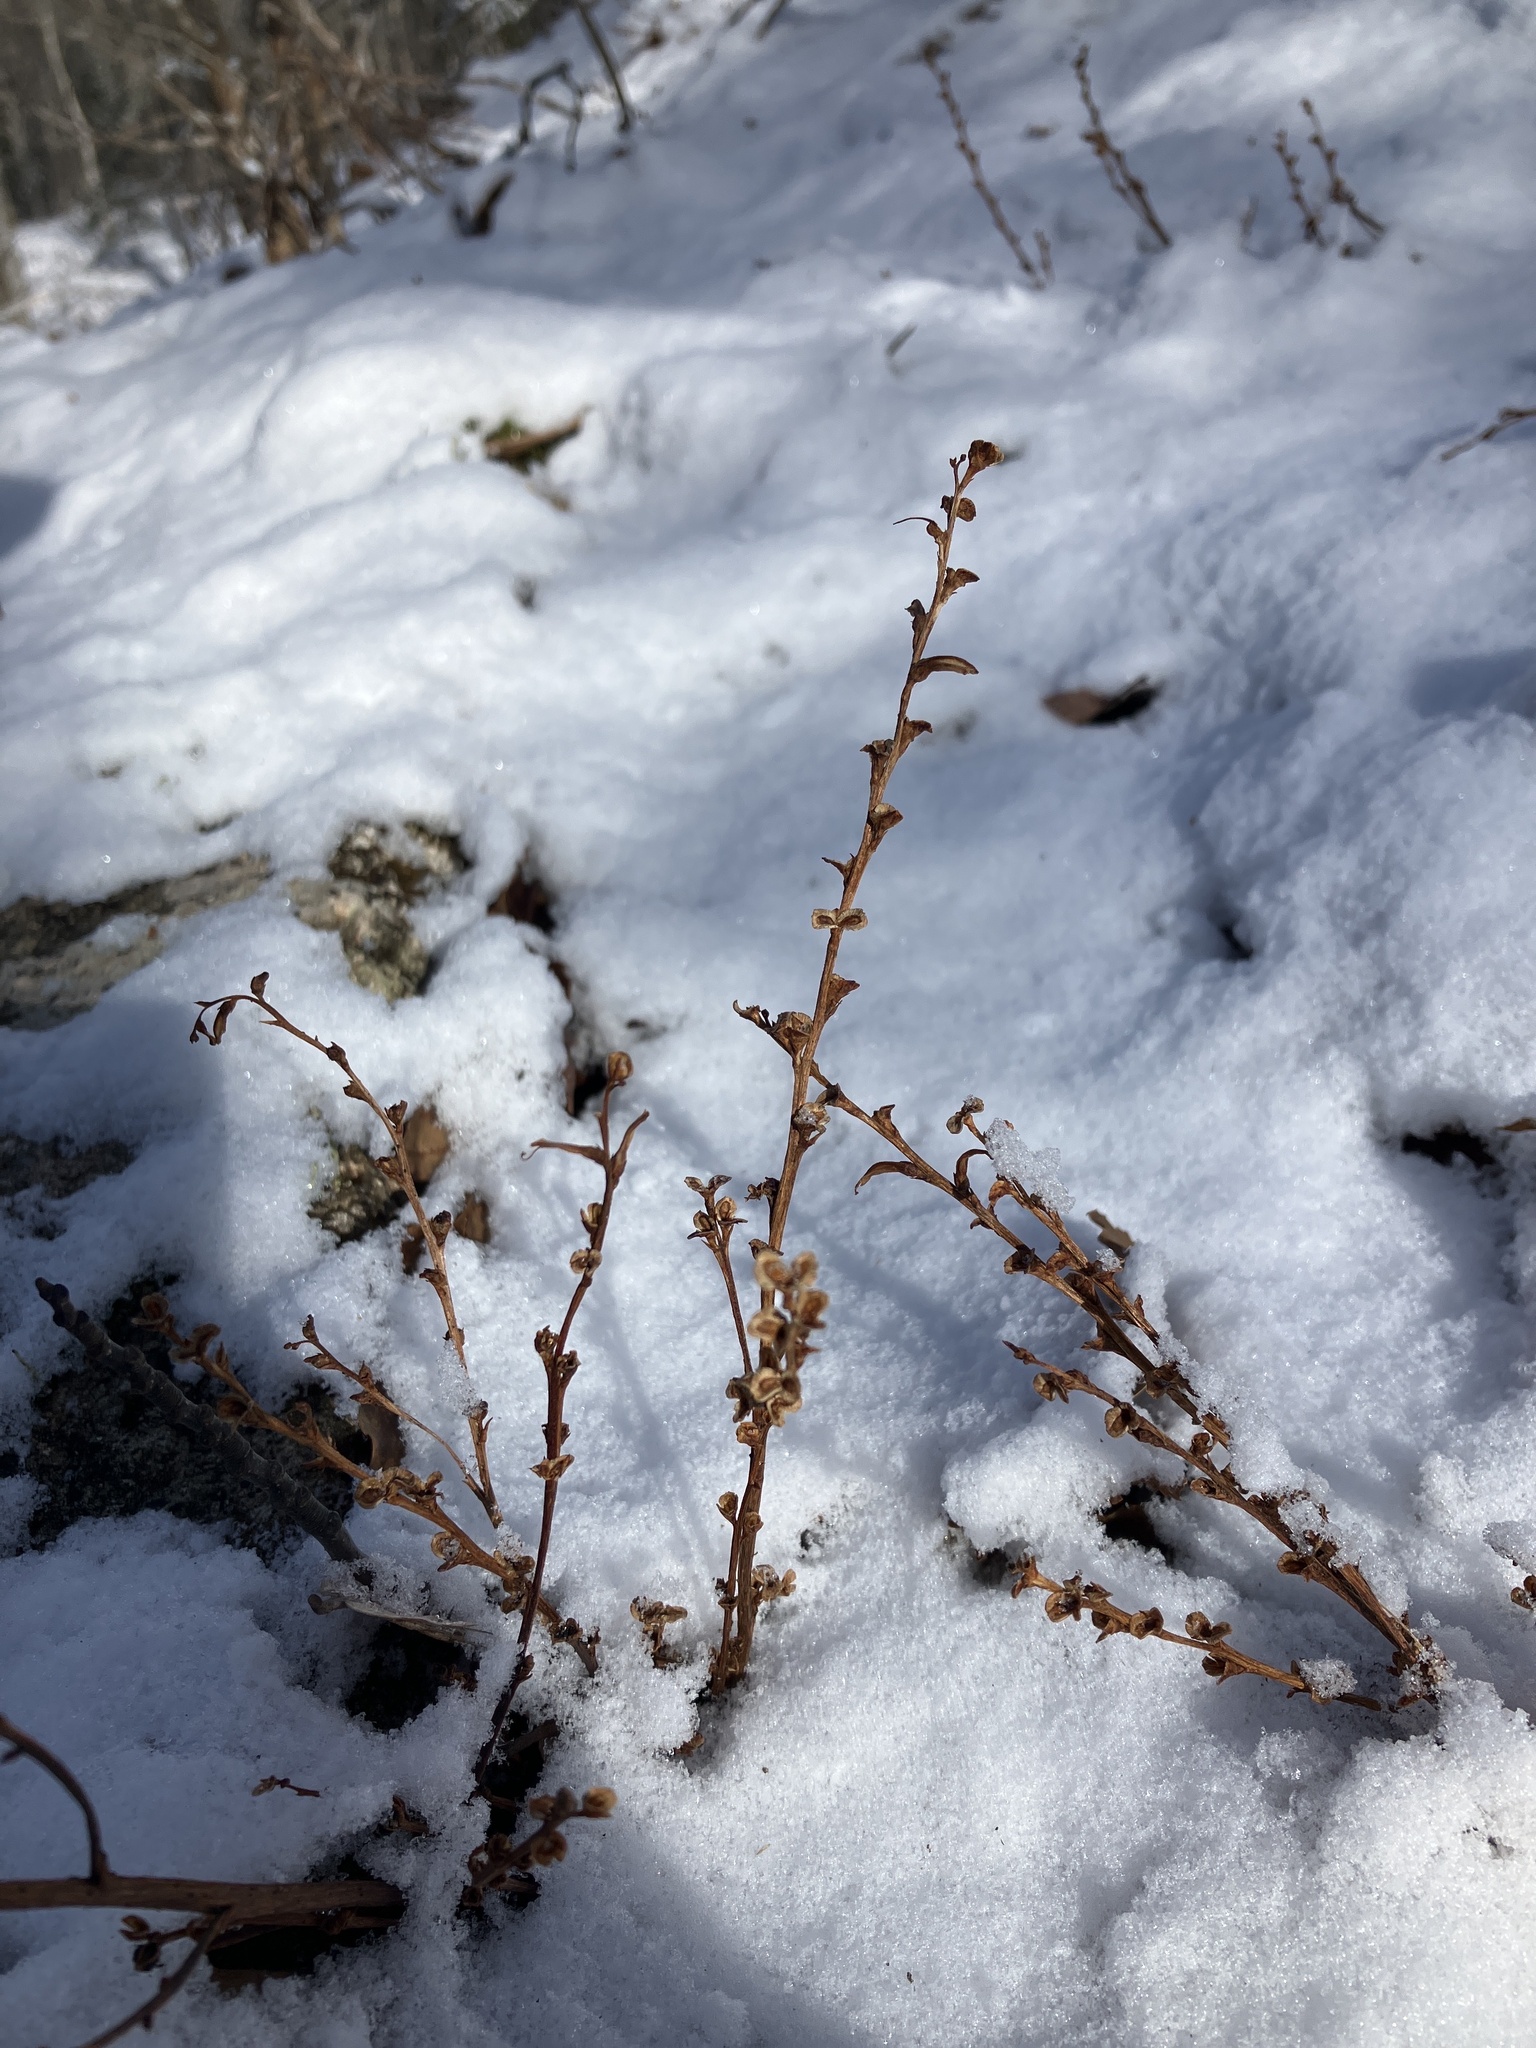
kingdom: Plantae
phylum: Tracheophyta
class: Magnoliopsida
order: Lamiales
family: Orobanchaceae
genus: Epifagus
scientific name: Epifagus virginiana
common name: Beechdrops
